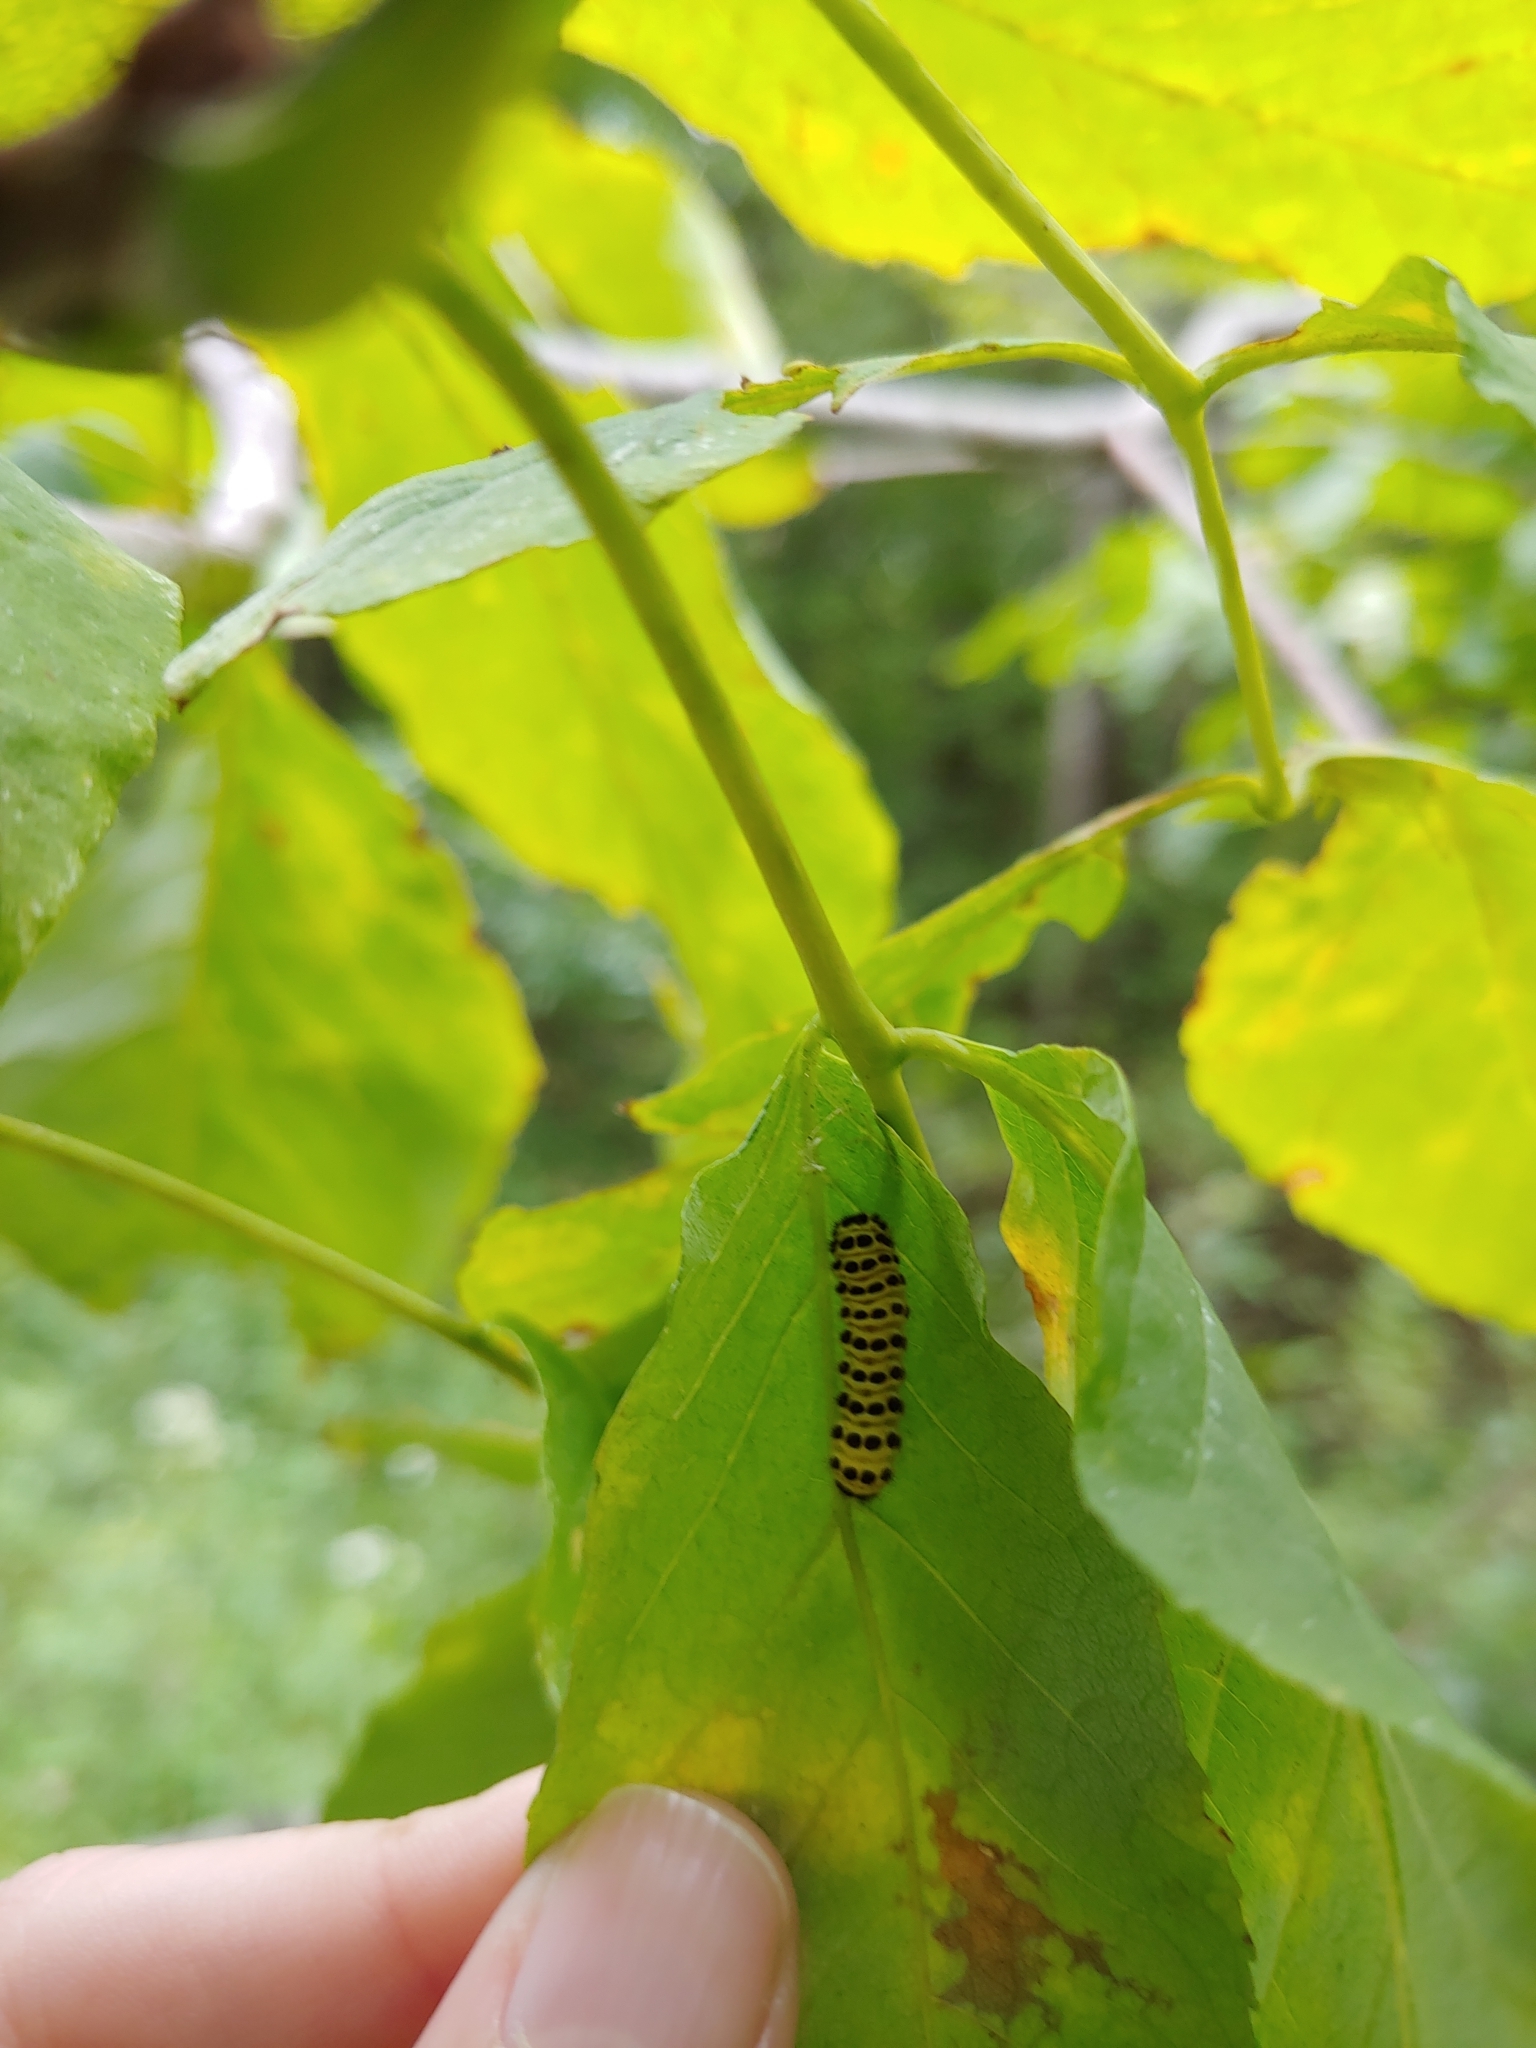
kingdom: Animalia
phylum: Arthropoda
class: Insecta
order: Lepidoptera
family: Zygaenidae
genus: Harrisina
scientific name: Harrisina americana
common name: Grapeleaf skeletonizer moth
